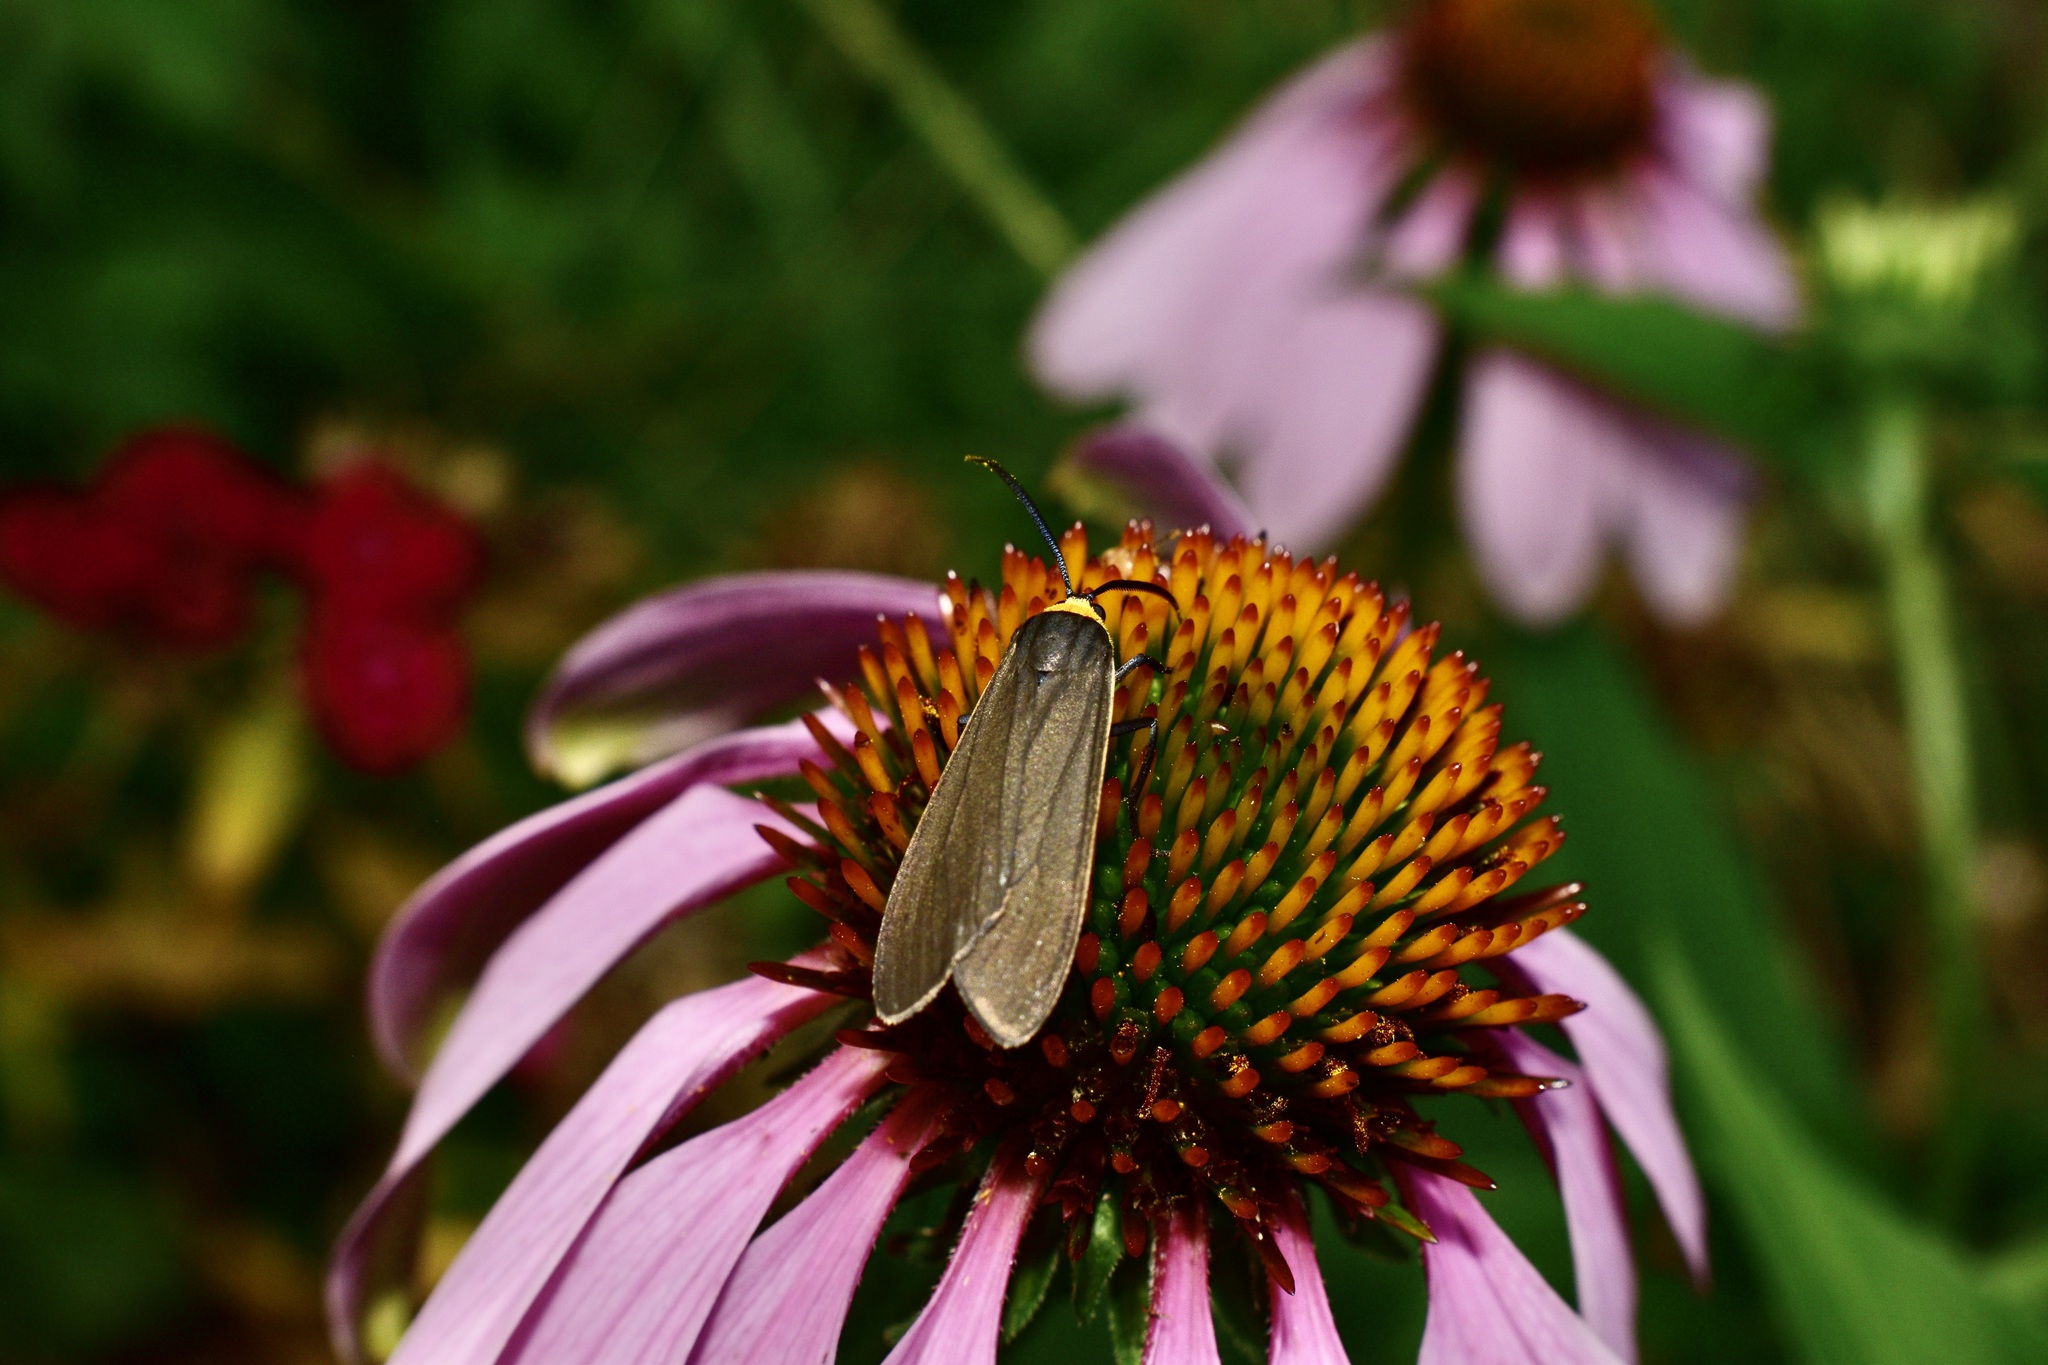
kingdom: Animalia
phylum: Arthropoda
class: Insecta
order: Lepidoptera
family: Erebidae
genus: Cisseps
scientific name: Cisseps fulvicollis
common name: Yellow-collared scape moth
